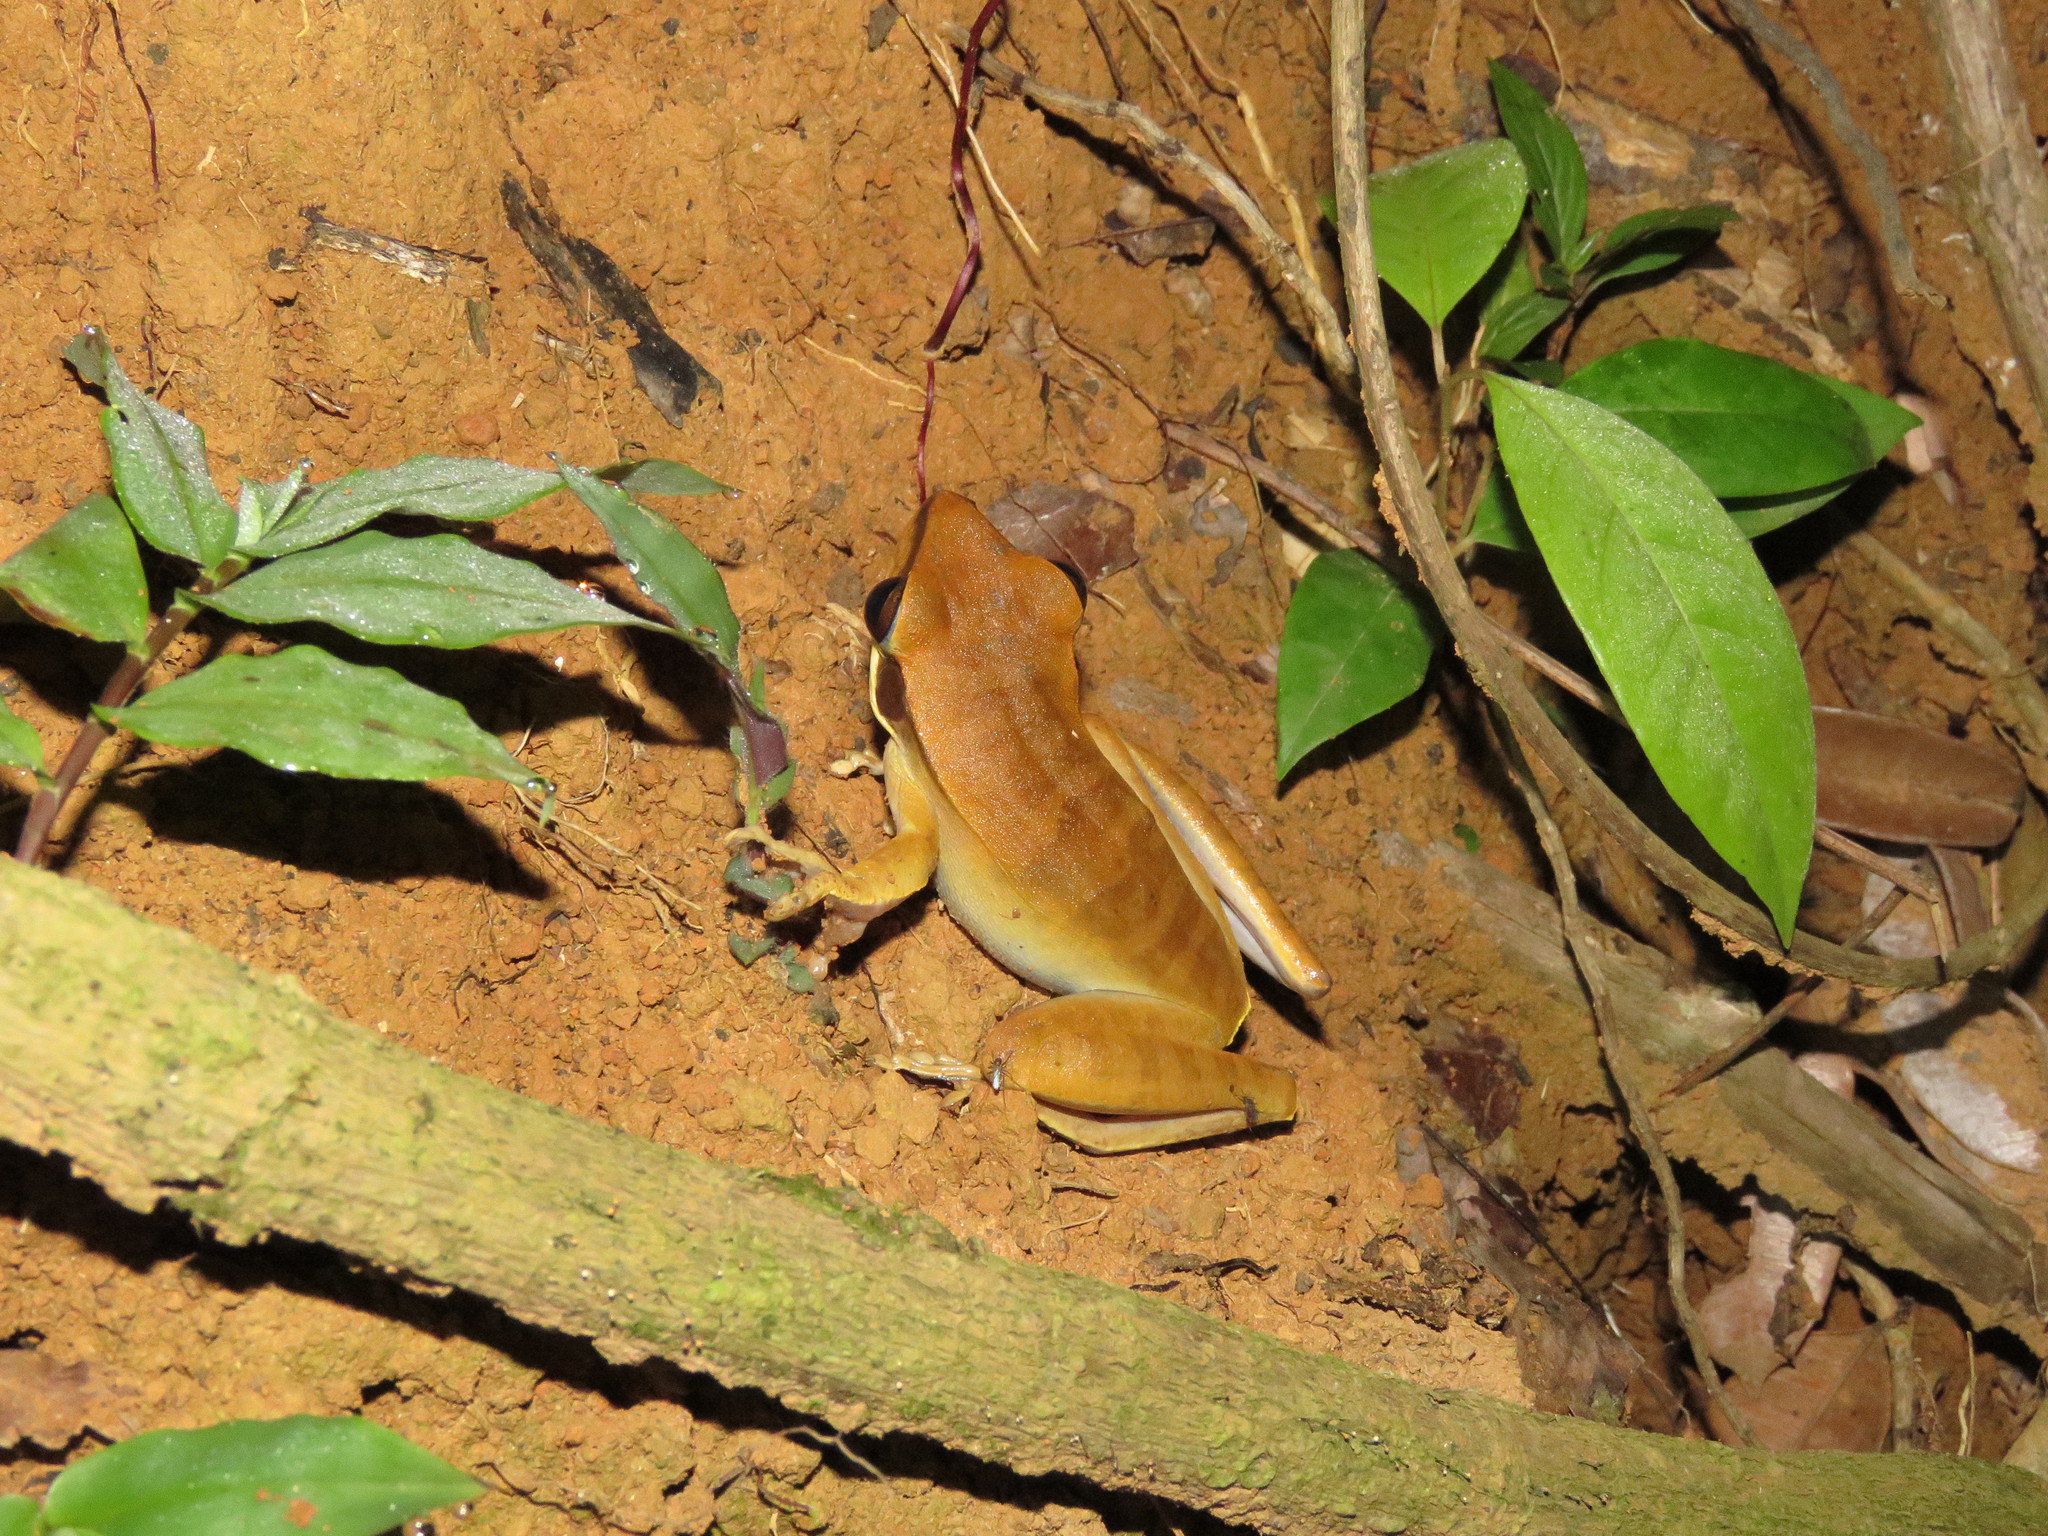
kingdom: Animalia
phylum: Chordata
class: Amphibia
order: Anura
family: Hylidae
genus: Boana
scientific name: Boana raniceps
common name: Chaco treefrog
